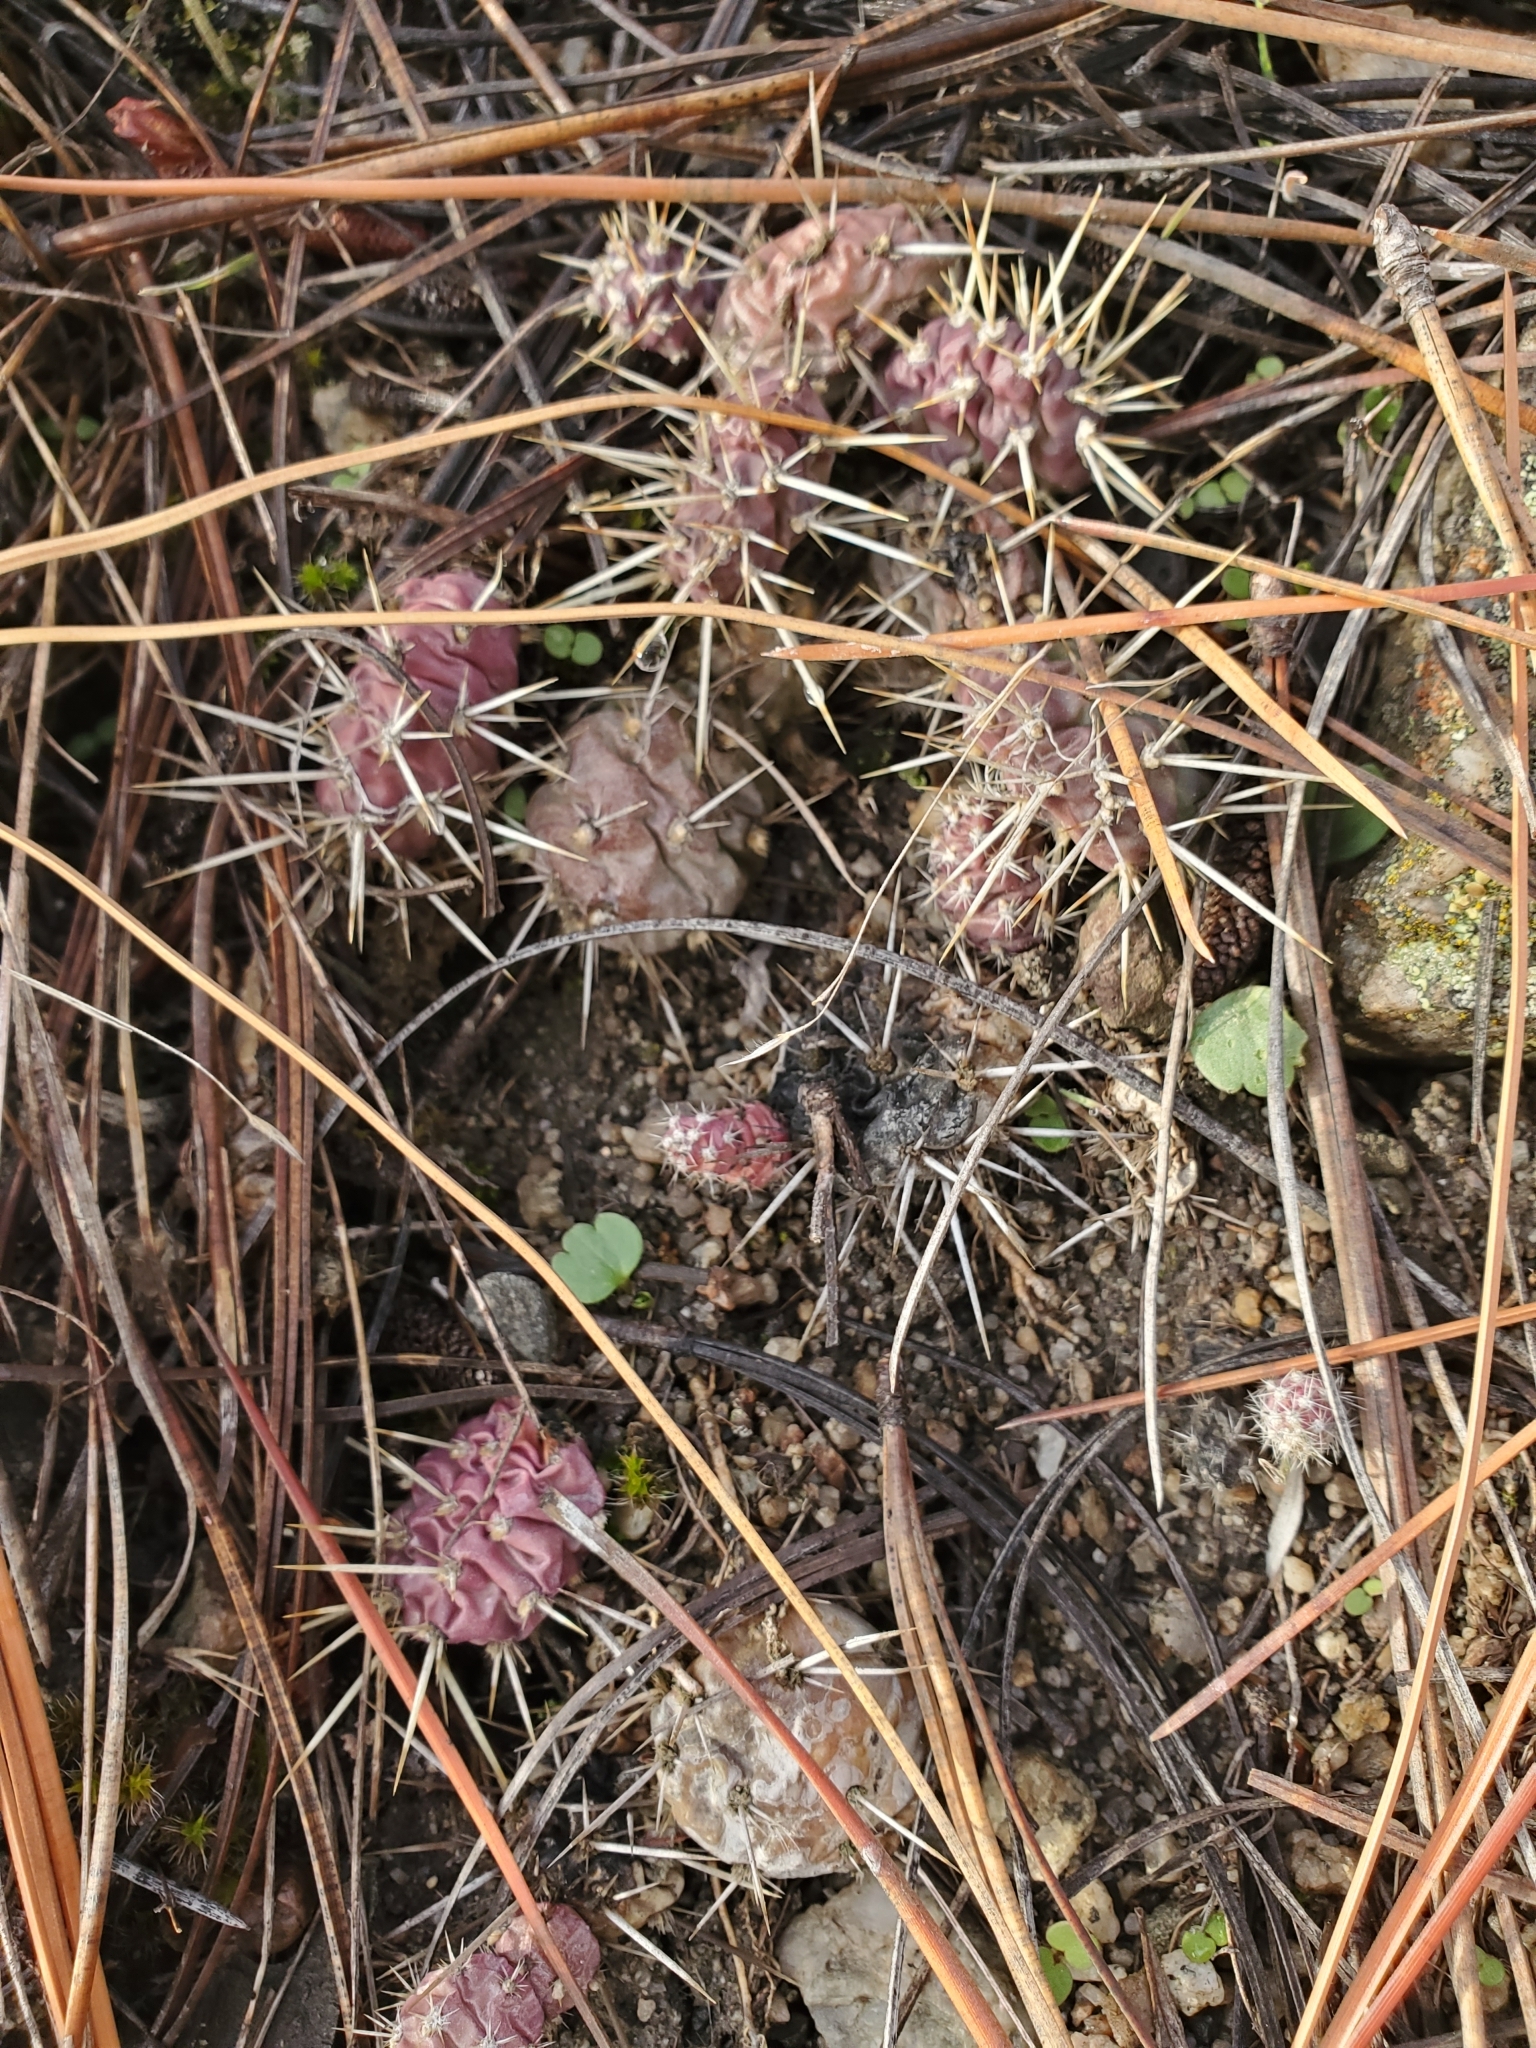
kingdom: Plantae
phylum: Tracheophyta
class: Magnoliopsida
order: Caryophyllales
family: Cactaceae
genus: Opuntia
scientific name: Opuntia fragilis
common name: Brittle cactus
